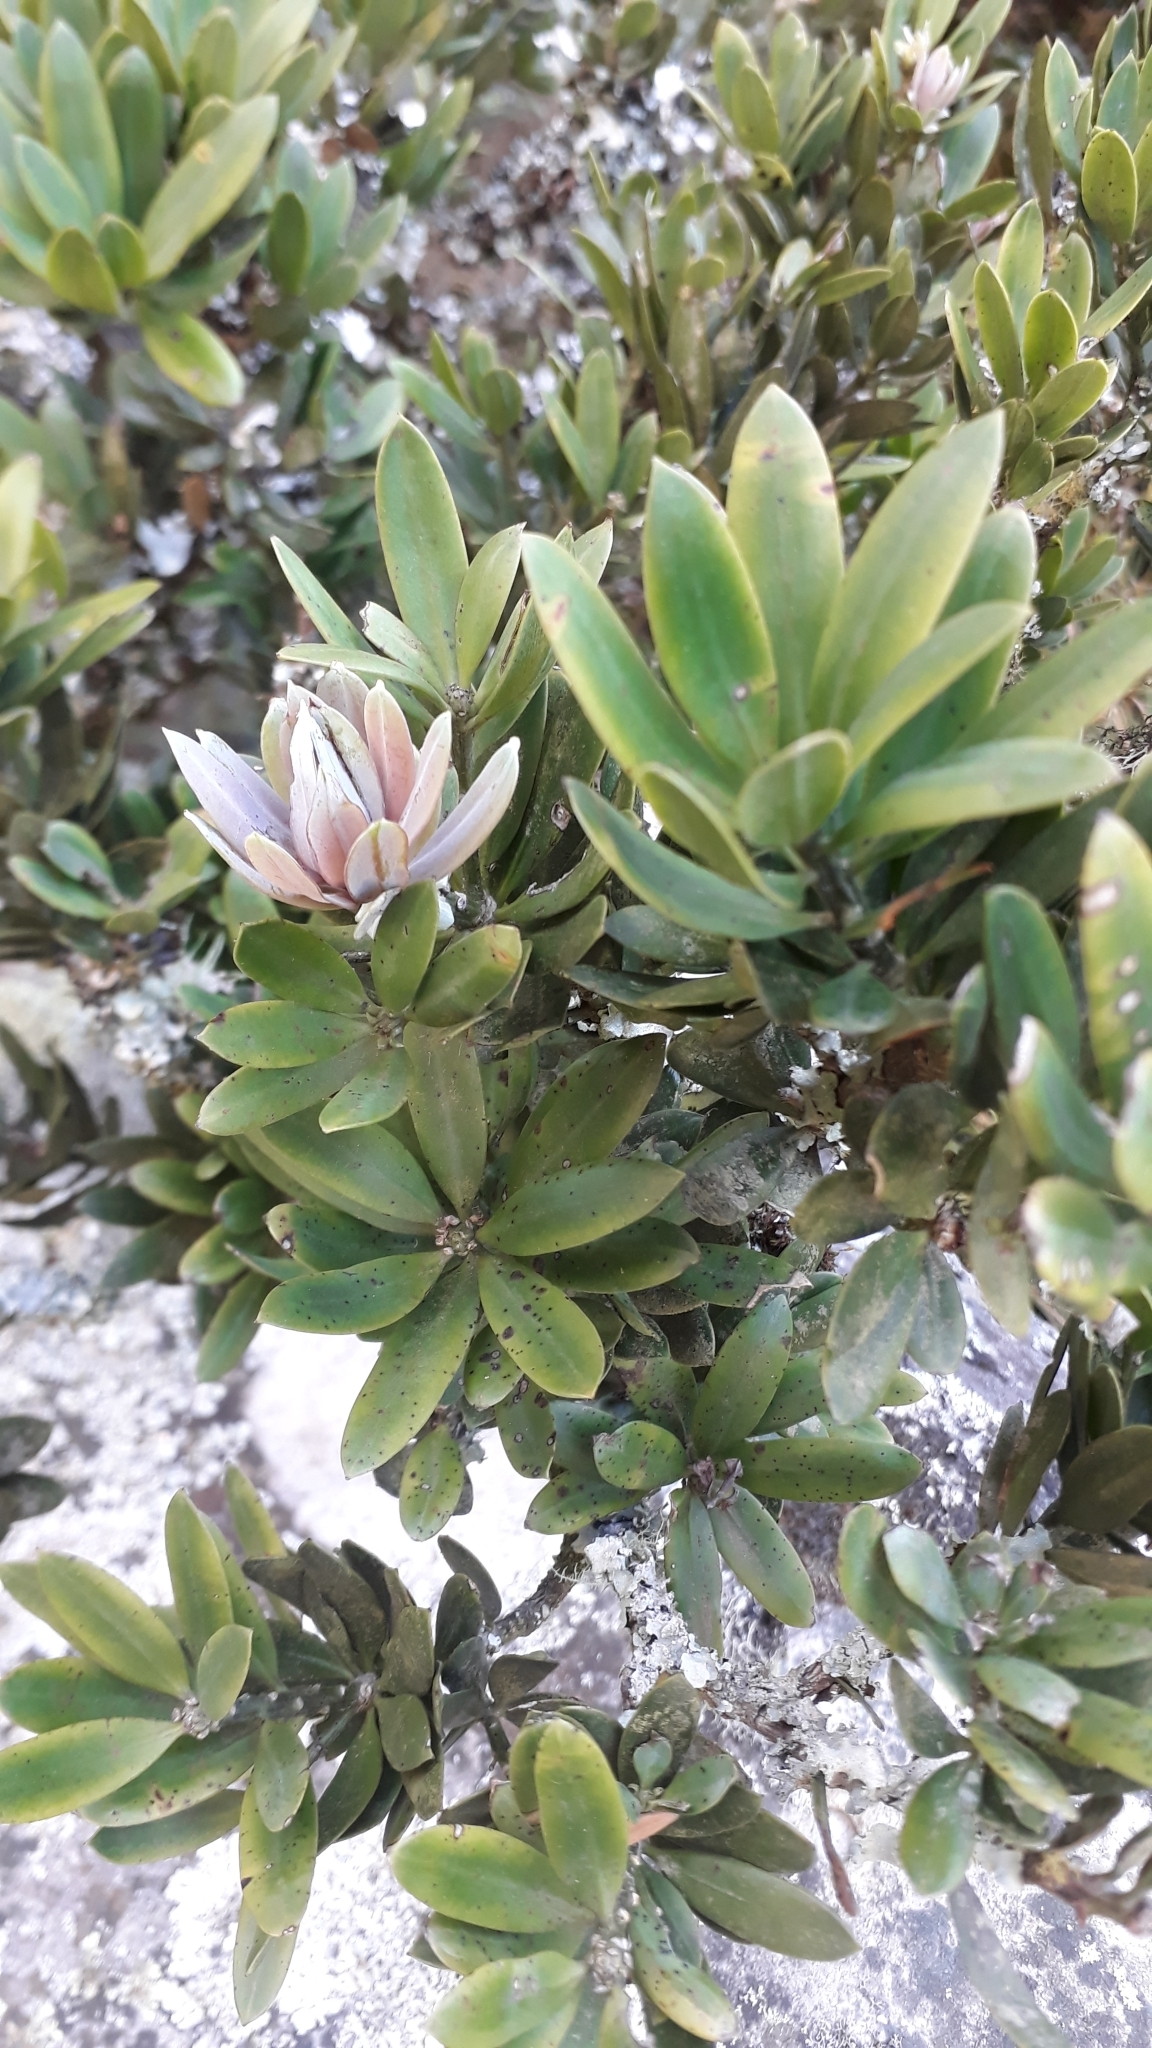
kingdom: Plantae
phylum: Tracheophyta
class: Pinopsida
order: Pinales
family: Podocarpaceae
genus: Podocarpus
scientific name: Podocarpus latifolius
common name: True yellowwood
